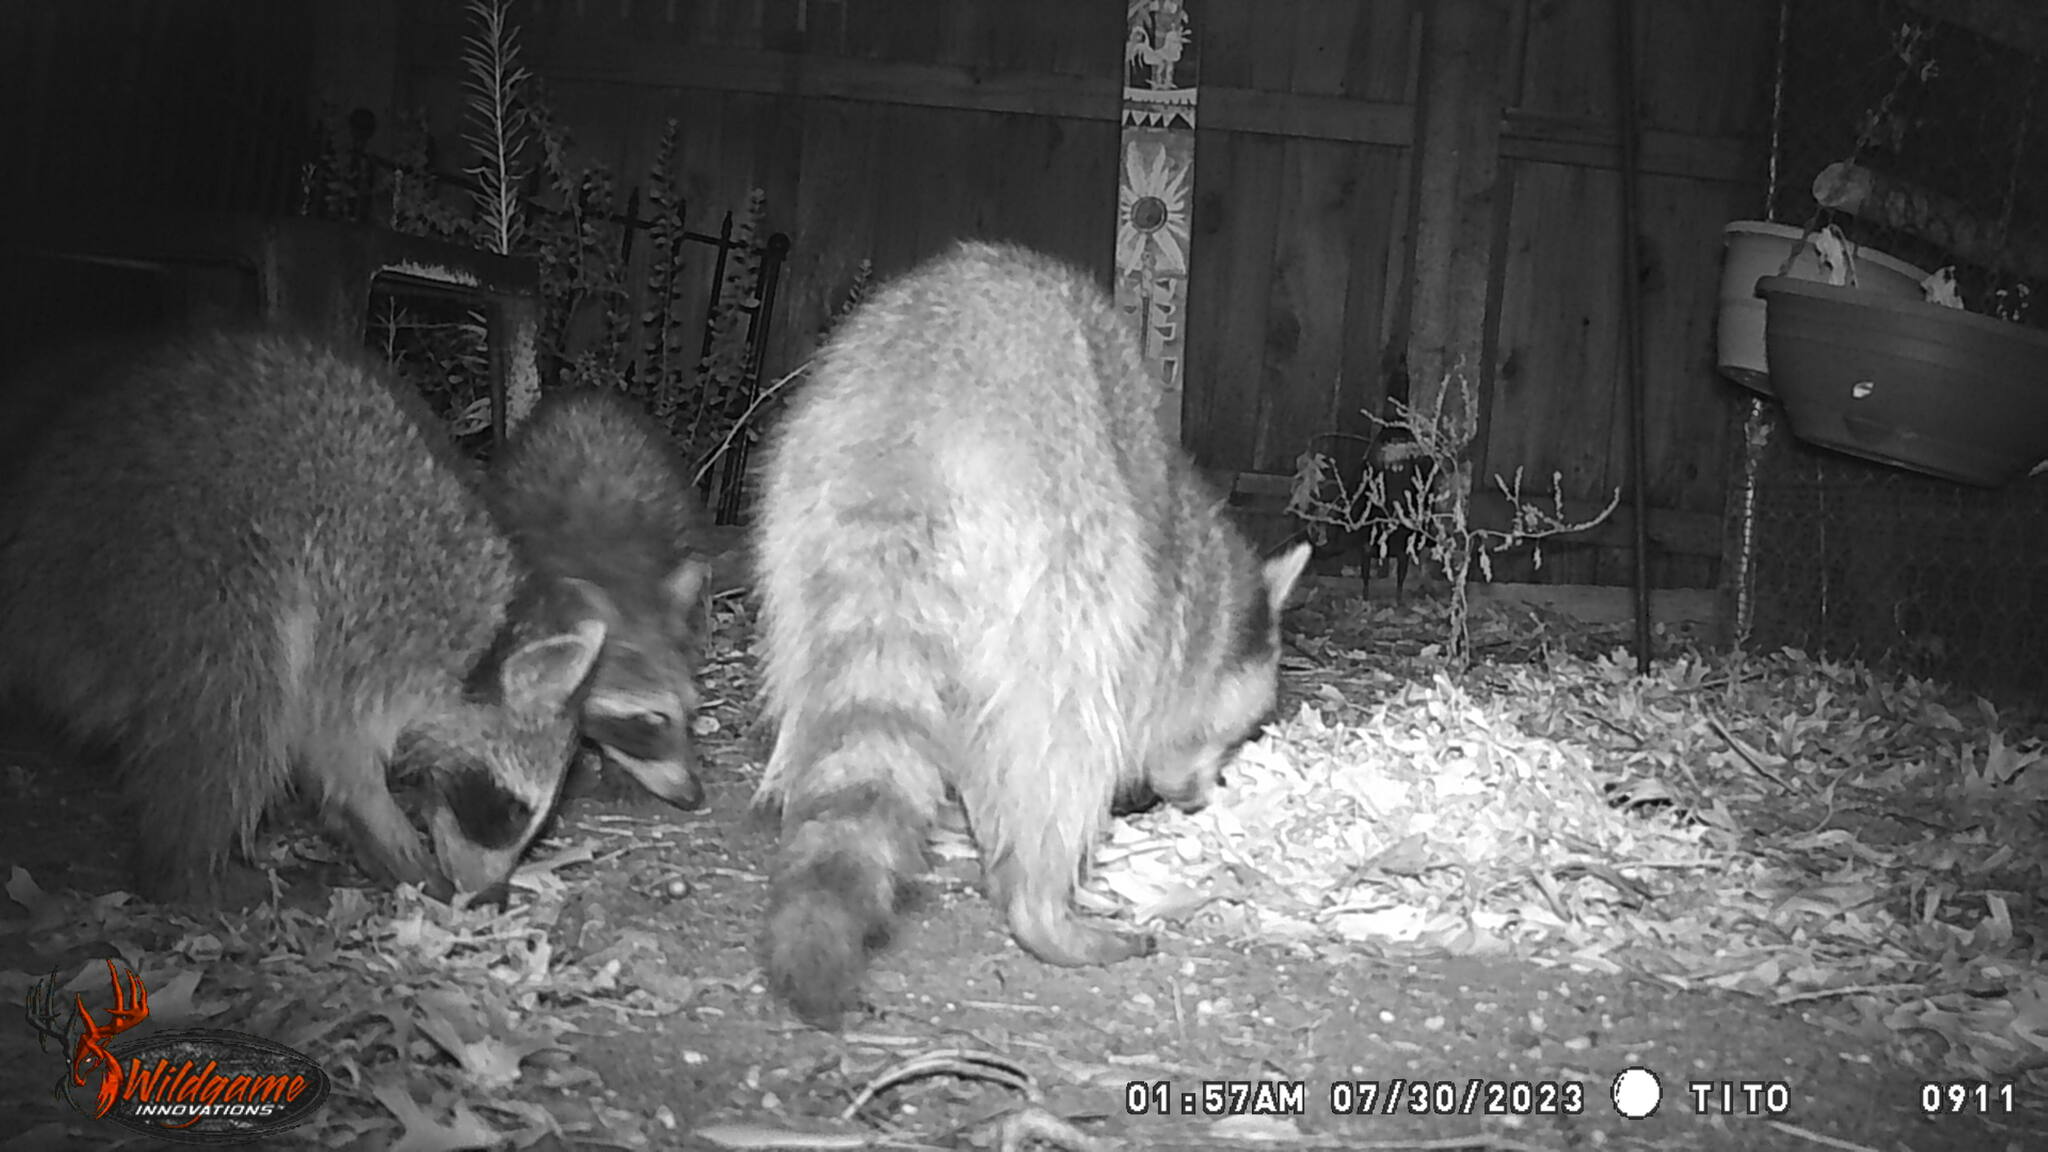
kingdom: Animalia
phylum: Chordata
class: Mammalia
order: Carnivora
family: Procyonidae
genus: Procyon
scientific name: Procyon lotor
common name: Raccoon
